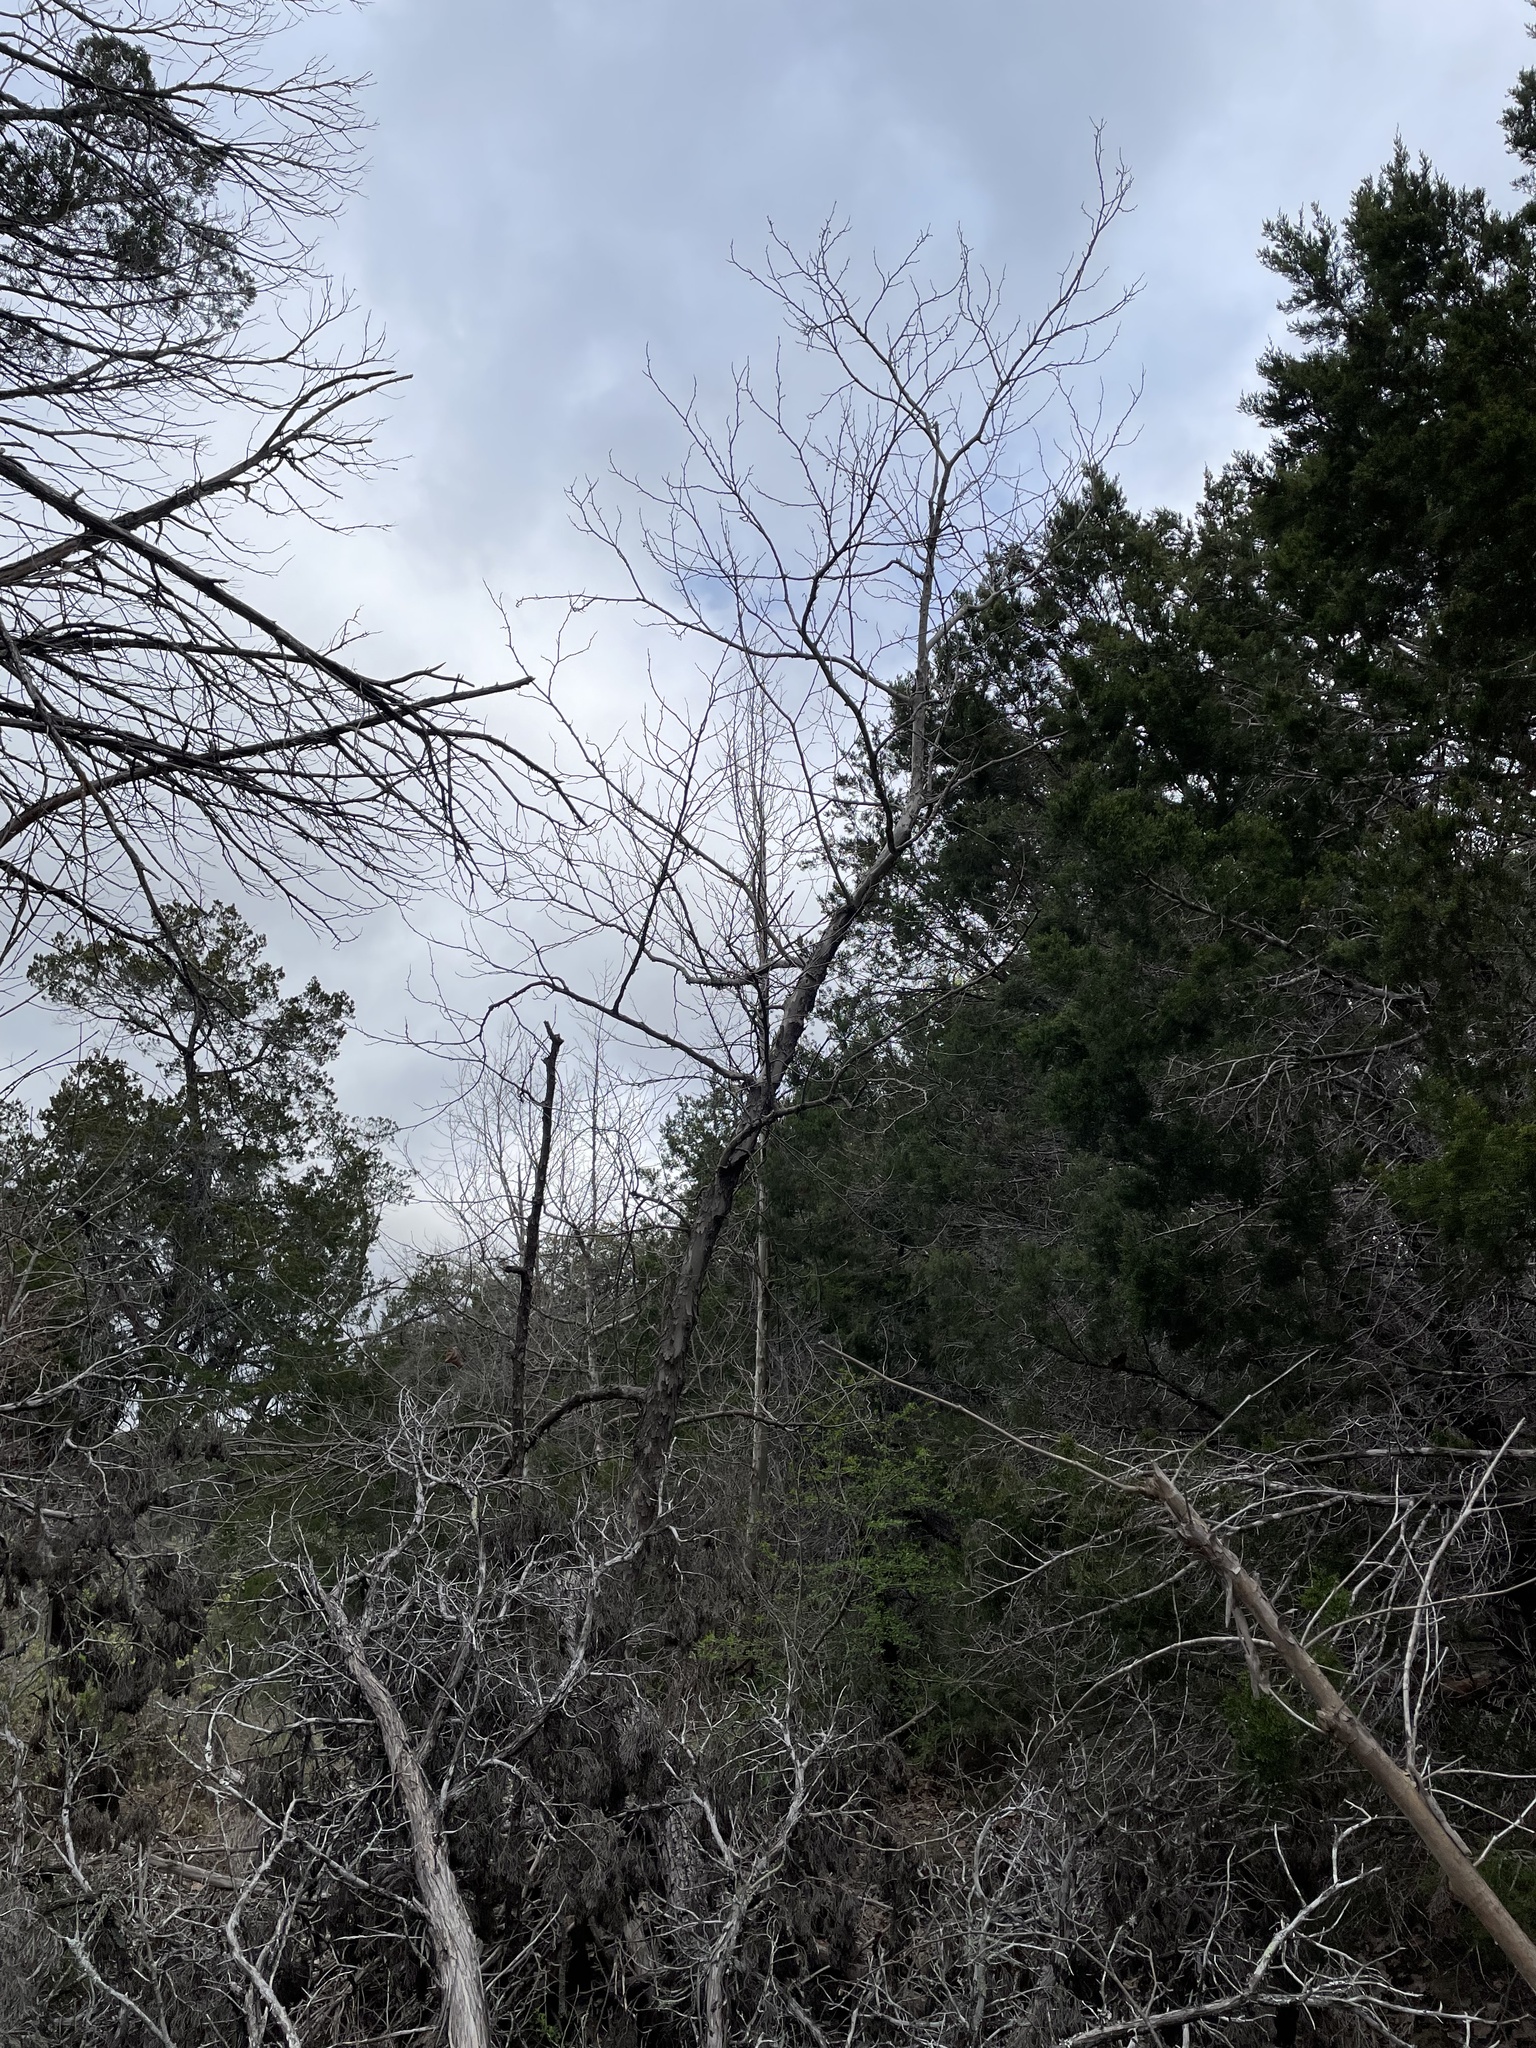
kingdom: Plantae
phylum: Tracheophyta
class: Magnoliopsida
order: Proteales
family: Platanaceae
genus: Platanus
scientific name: Platanus occidentalis
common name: American sycamore
